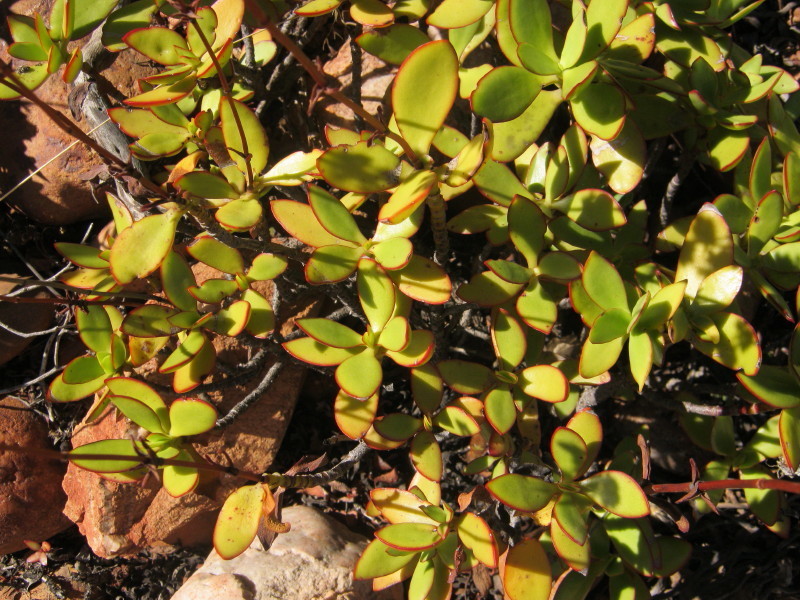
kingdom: Plantae
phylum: Tracheophyta
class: Magnoliopsida
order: Saxifragales
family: Crassulaceae
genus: Crassula
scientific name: Crassula cultrata
